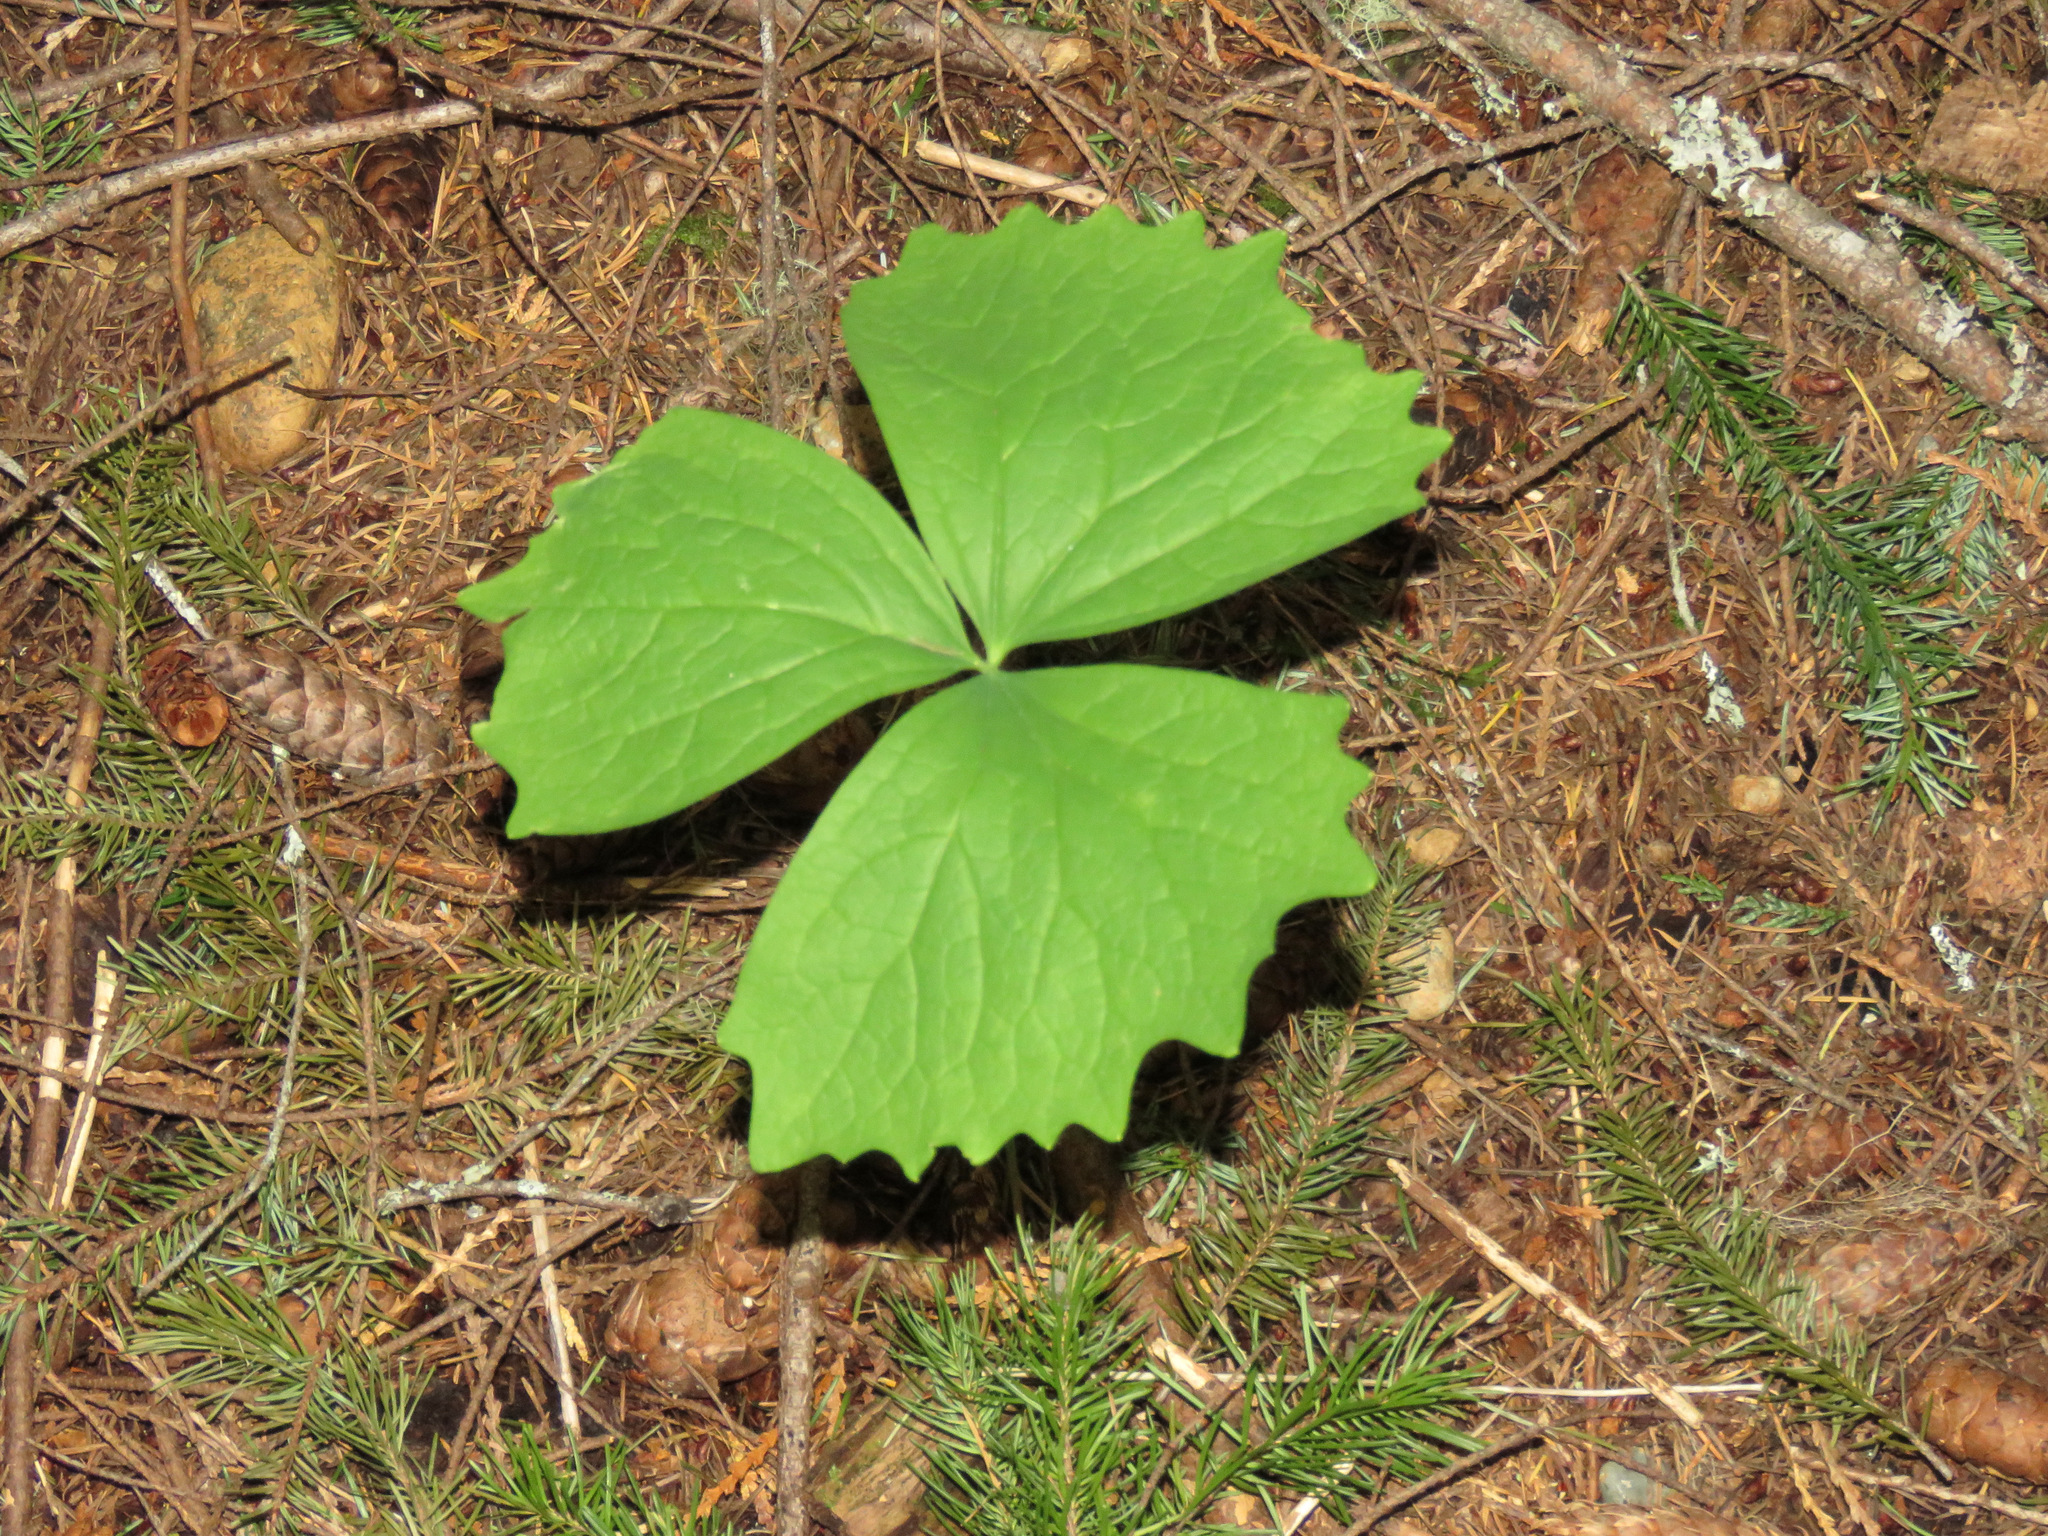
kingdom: Plantae
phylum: Tracheophyta
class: Magnoliopsida
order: Ranunculales
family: Berberidaceae
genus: Achlys
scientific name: Achlys triphylla
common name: Vanilla-leaf
